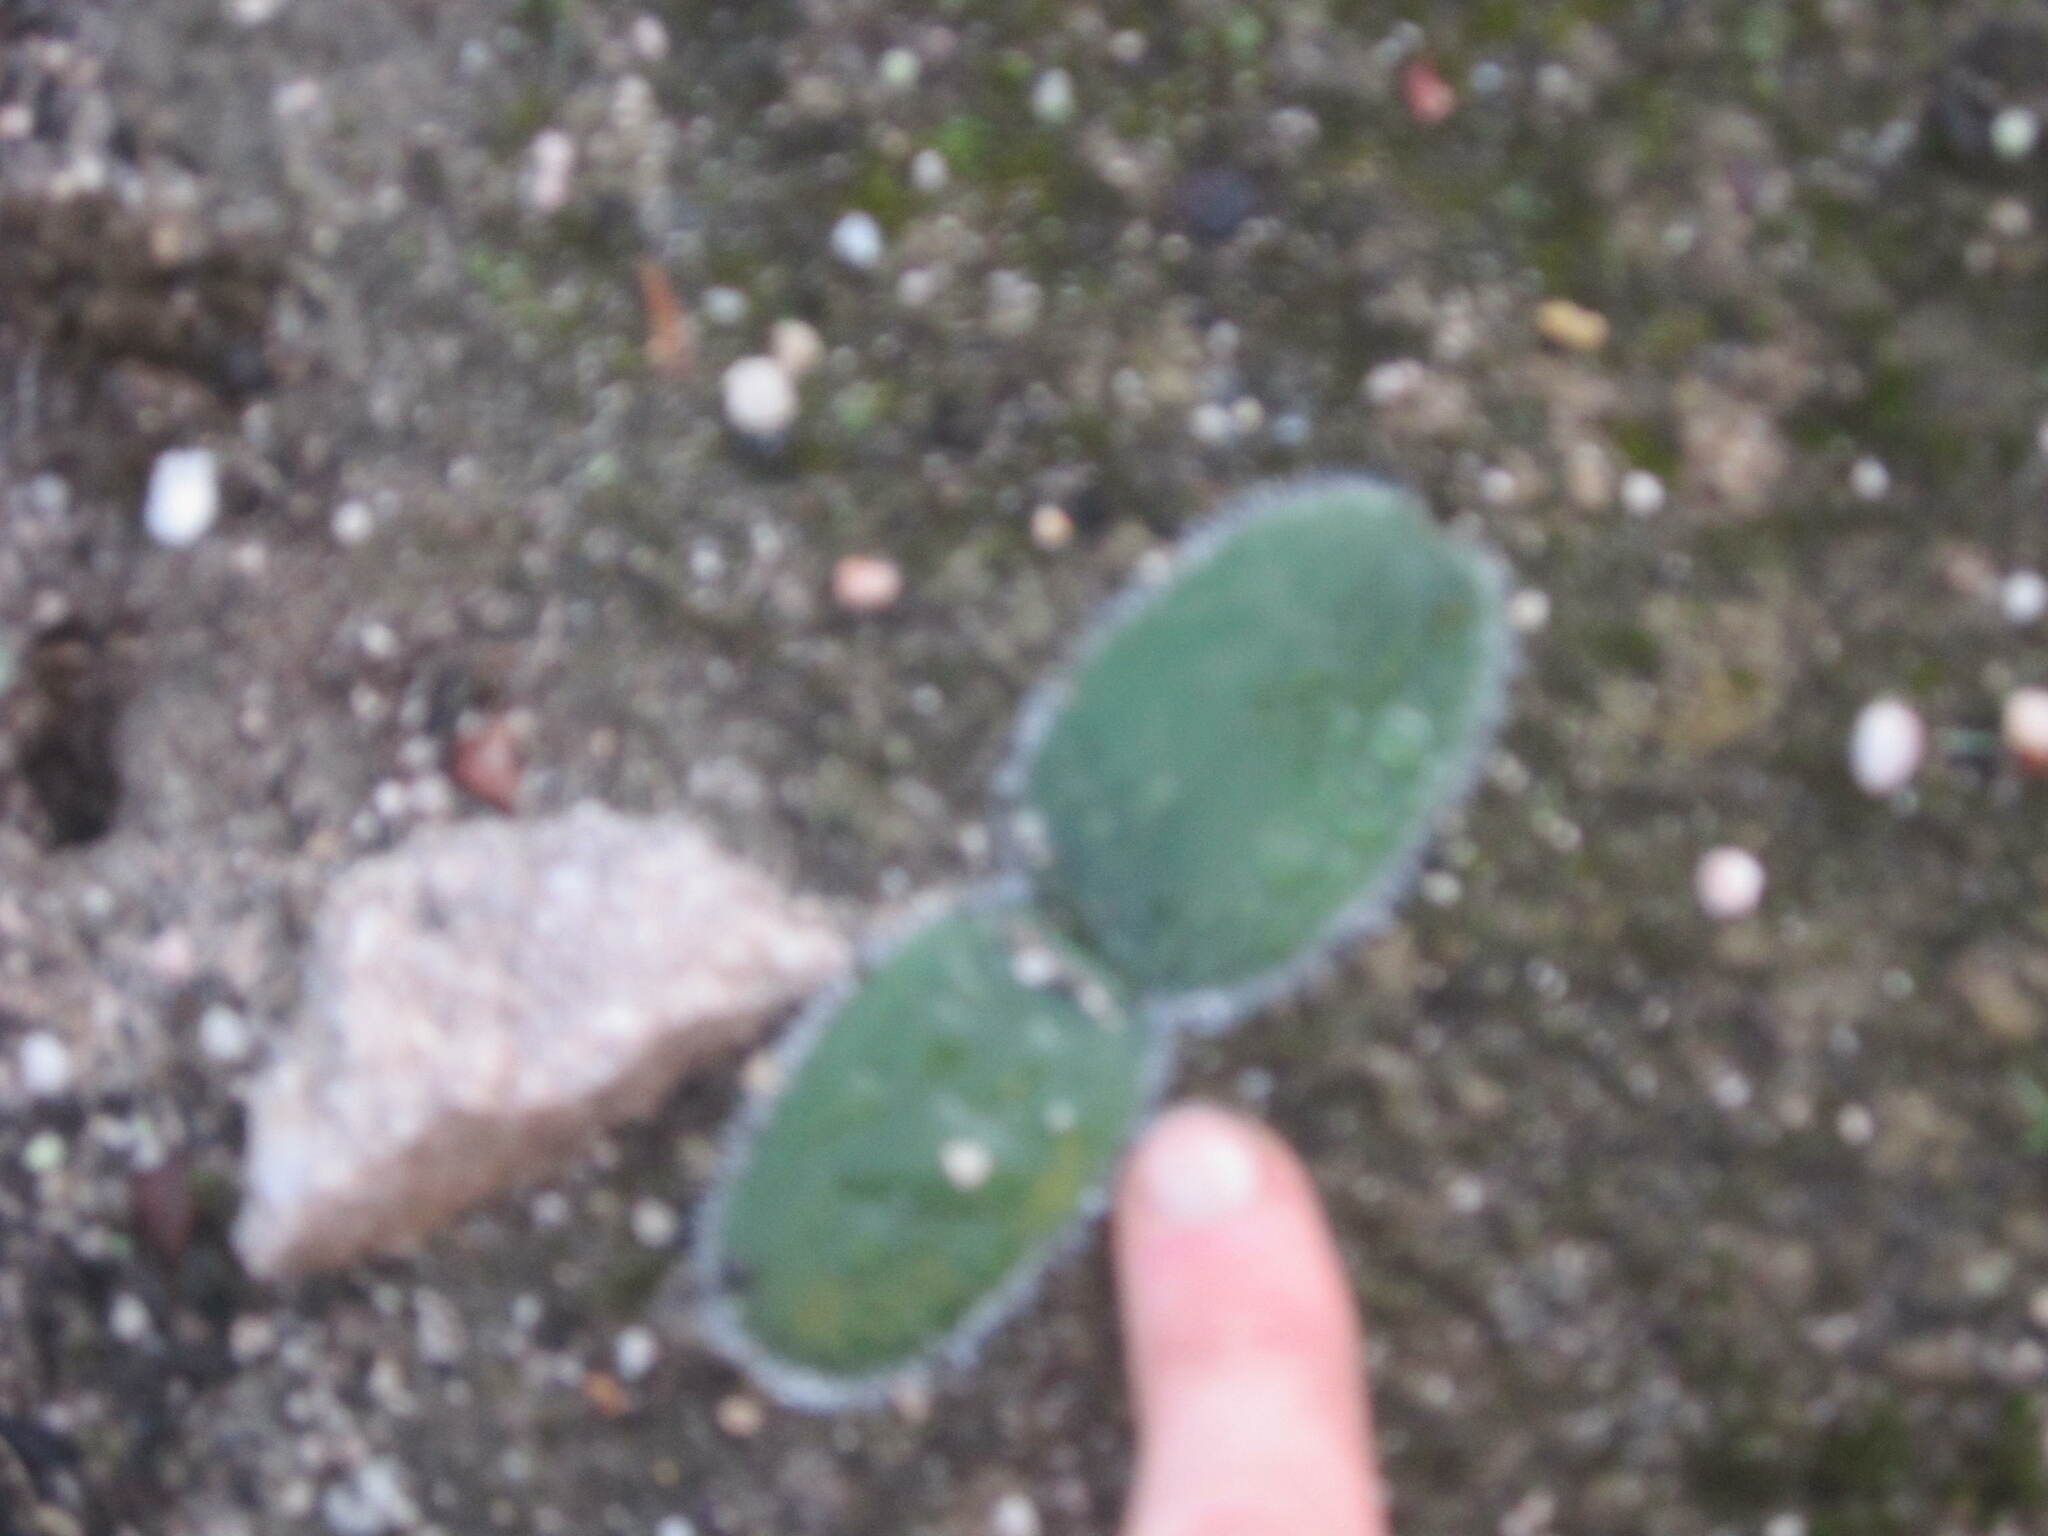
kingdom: Plantae
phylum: Tracheophyta
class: Liliopsida
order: Asparagales
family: Amaryllidaceae
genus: Strumaria
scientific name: Strumaria leipoldtii
